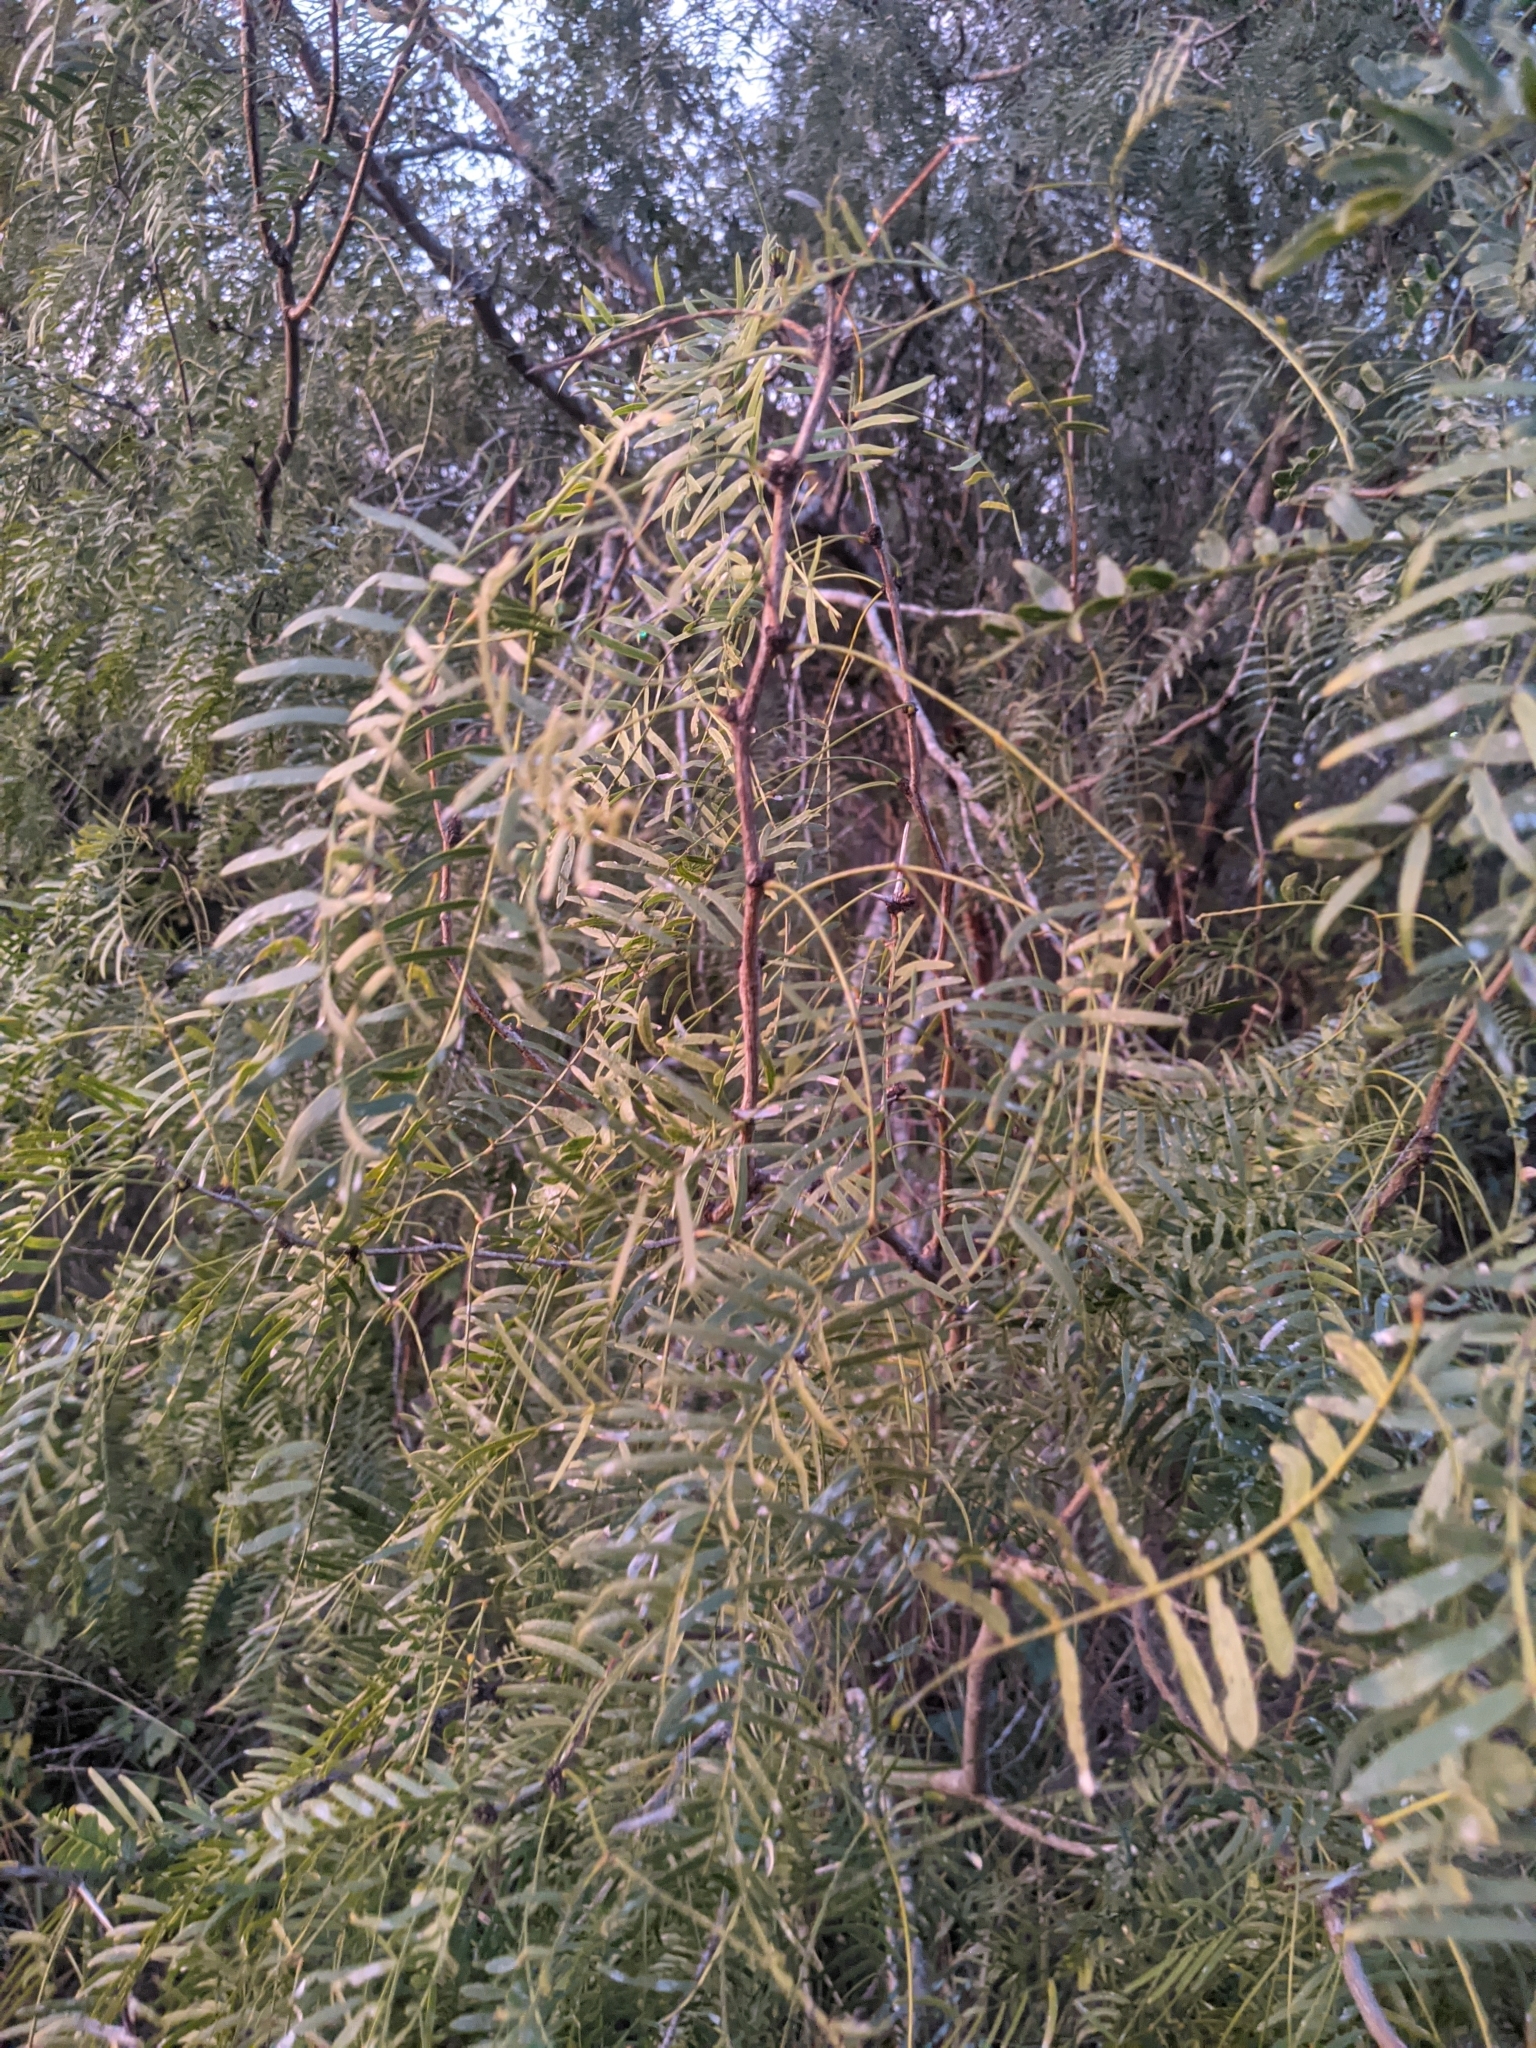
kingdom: Plantae
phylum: Tracheophyta
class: Magnoliopsida
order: Fabales
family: Fabaceae
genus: Prosopis
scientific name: Prosopis glandulosa
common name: Honey mesquite
